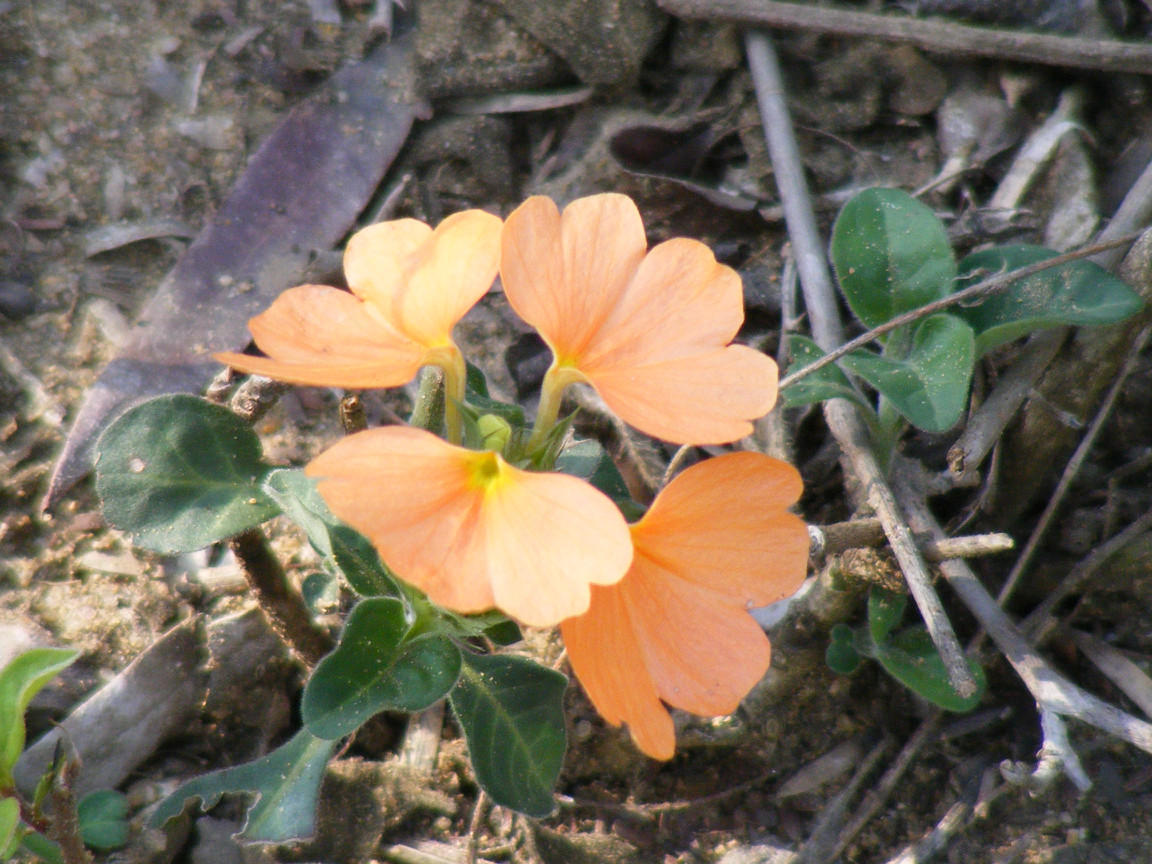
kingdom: Plantae
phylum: Tracheophyta
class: Magnoliopsida
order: Lamiales
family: Acanthaceae
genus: Crossandra
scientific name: Crossandra fruticulosa
